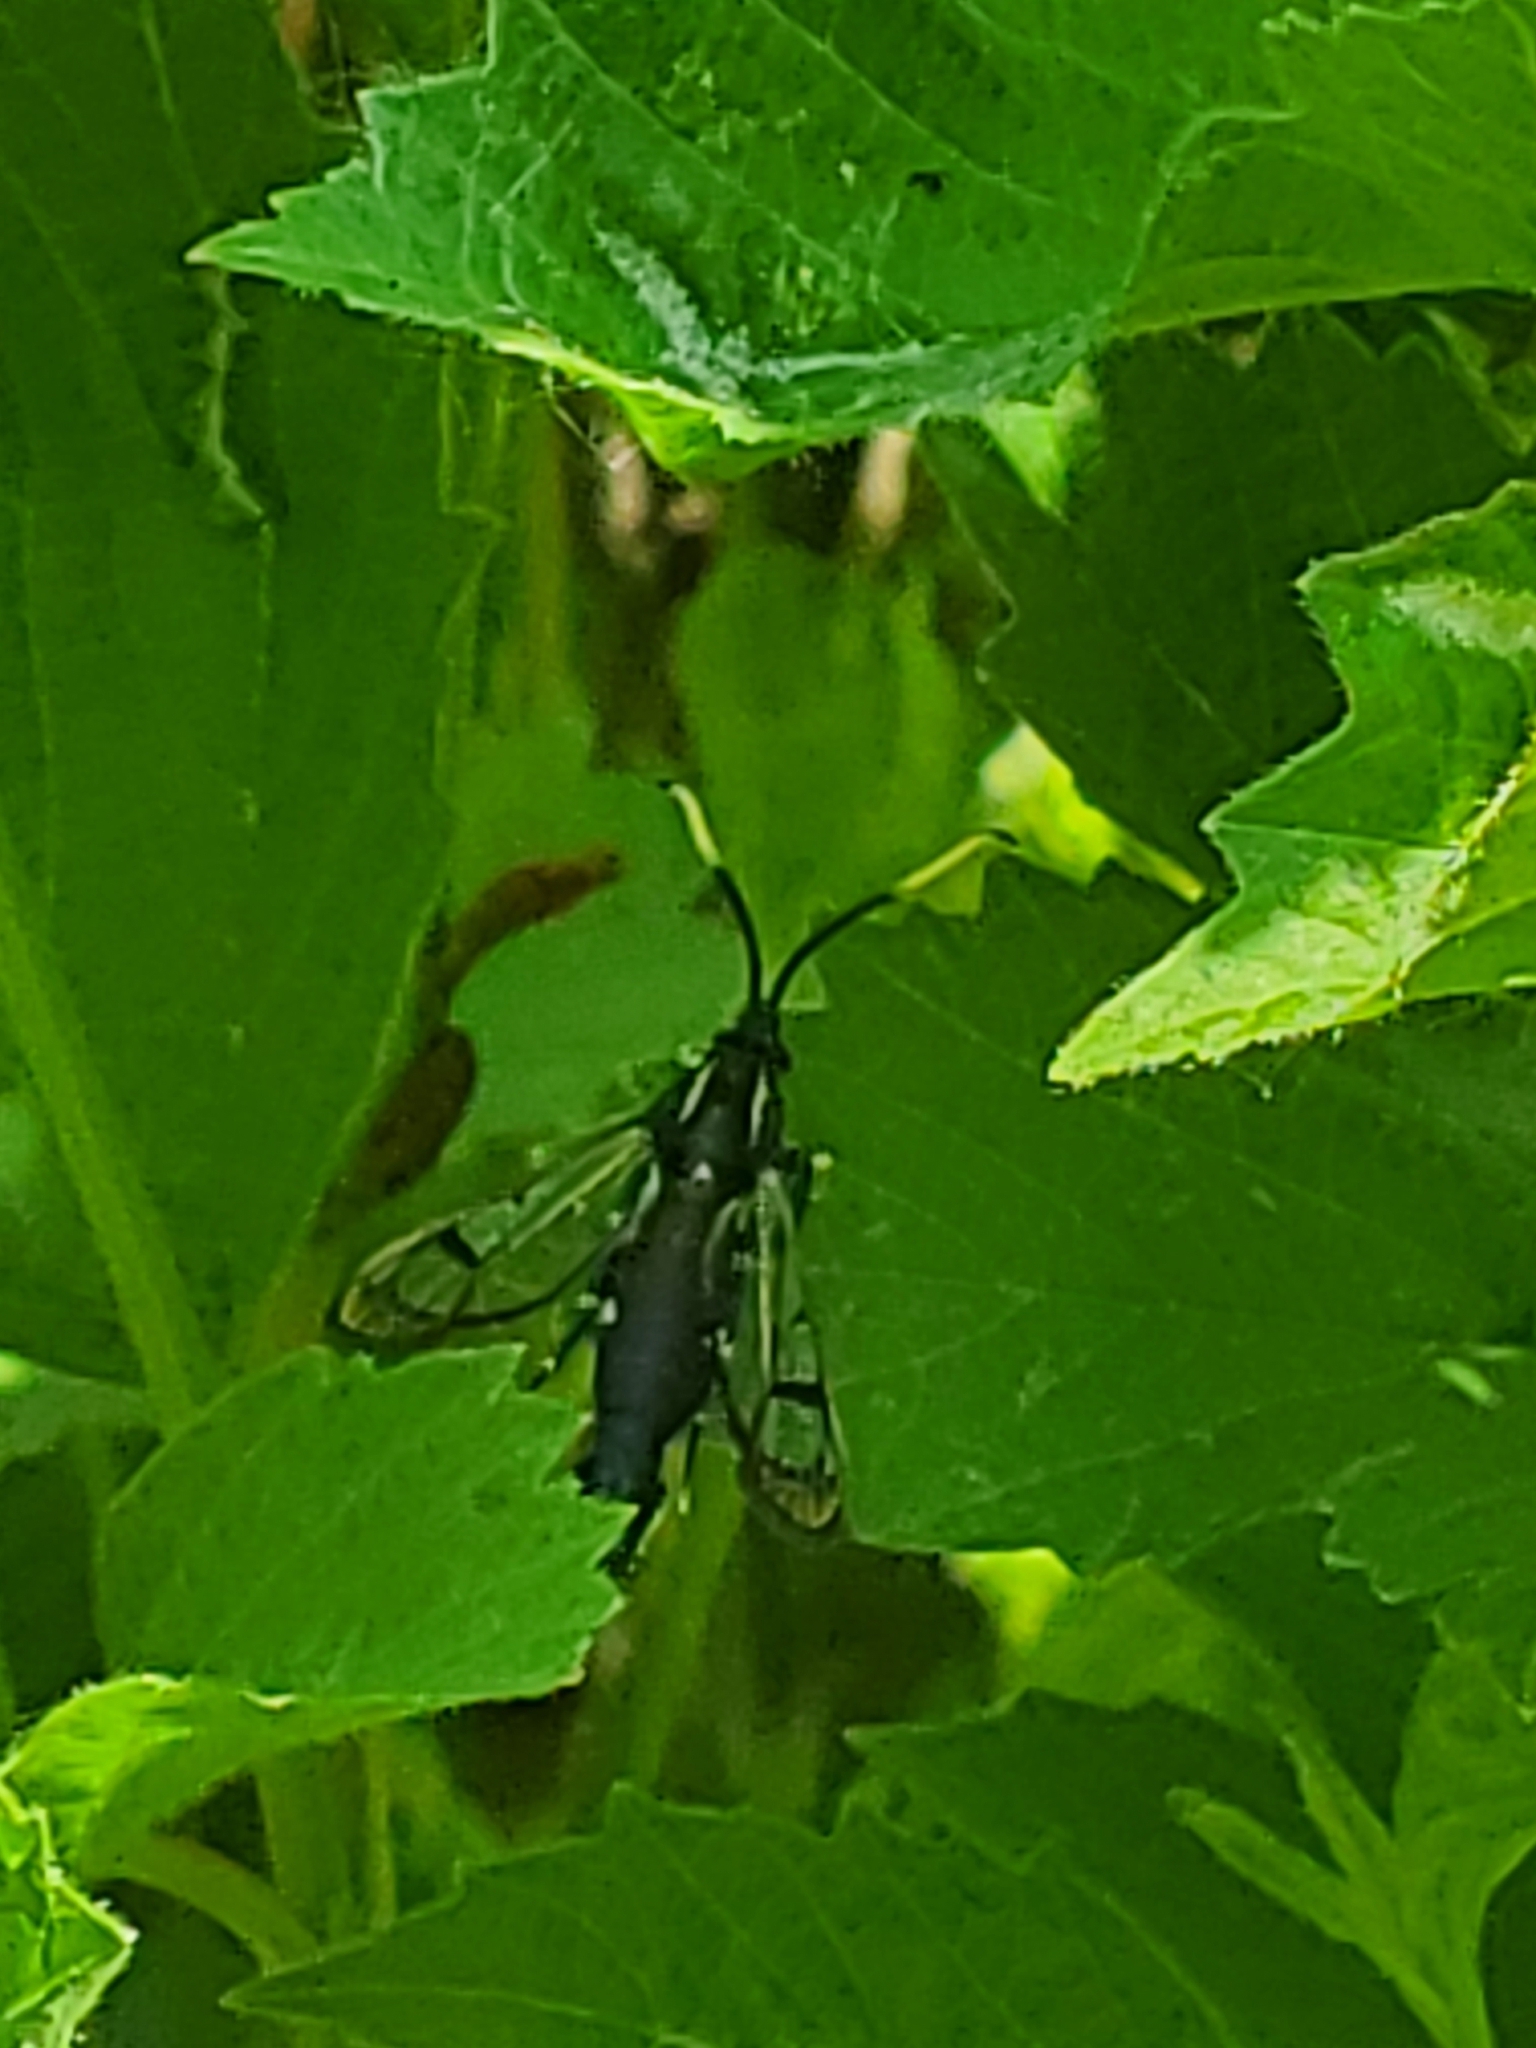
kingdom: Animalia
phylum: Arthropoda
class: Insecta
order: Lepidoptera
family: Sesiidae
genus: Synanthedon
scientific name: Synanthedon fatifera
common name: Arrowwood clearwing moth
